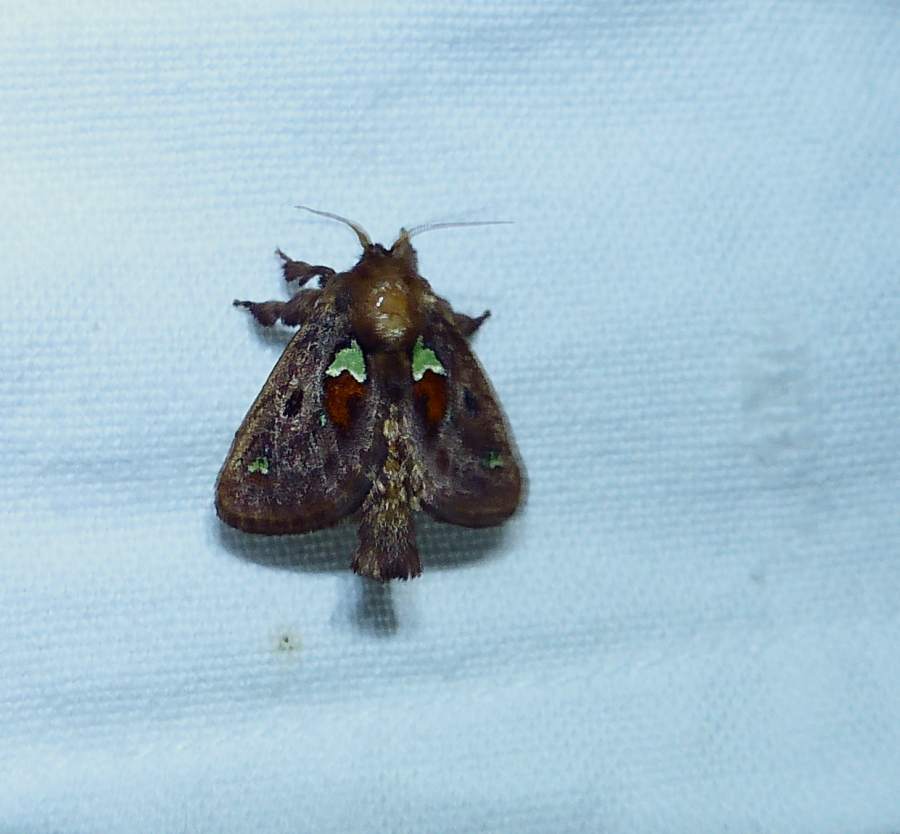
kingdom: Animalia
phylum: Arthropoda
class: Insecta
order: Lepidoptera
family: Limacodidae
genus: Euclea
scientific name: Euclea delphinii
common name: Spiny oak-slug moth
